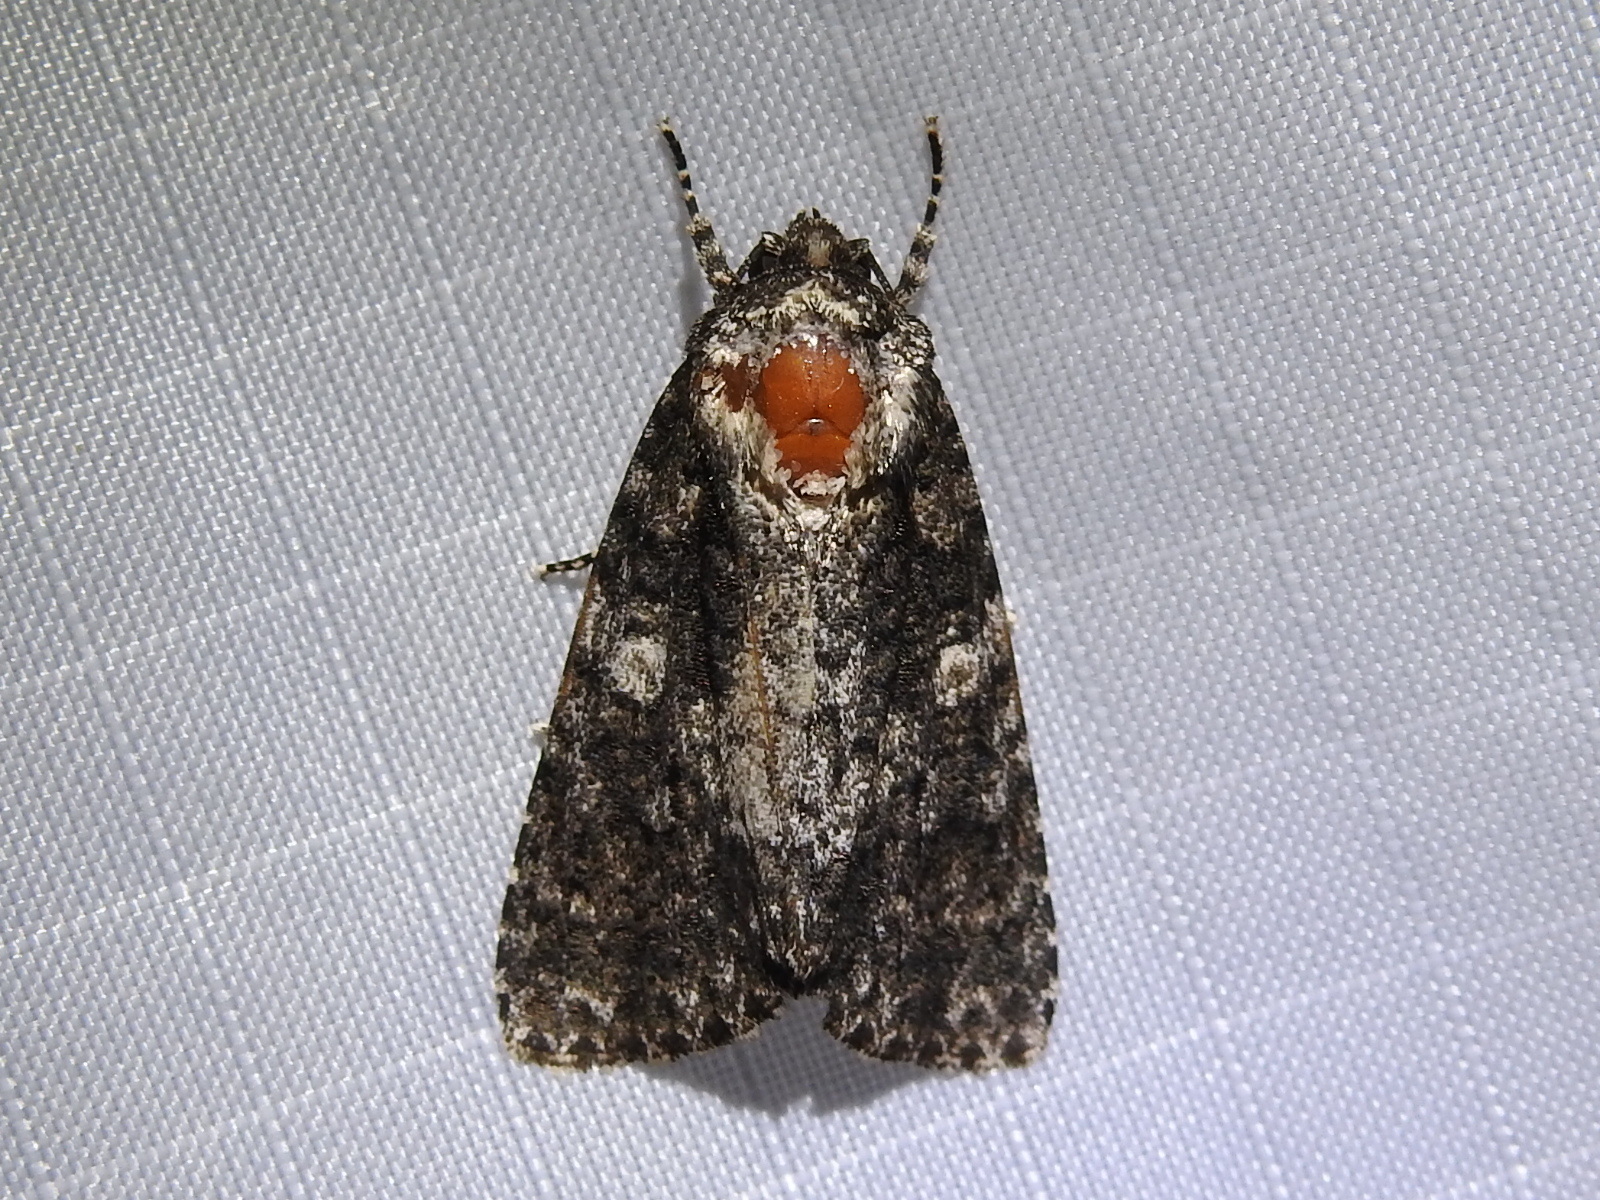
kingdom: Animalia
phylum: Arthropoda
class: Insecta
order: Lepidoptera
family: Noctuidae
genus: Acronicta
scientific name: Acronicta afflicta
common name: Afflicted dagger moth
